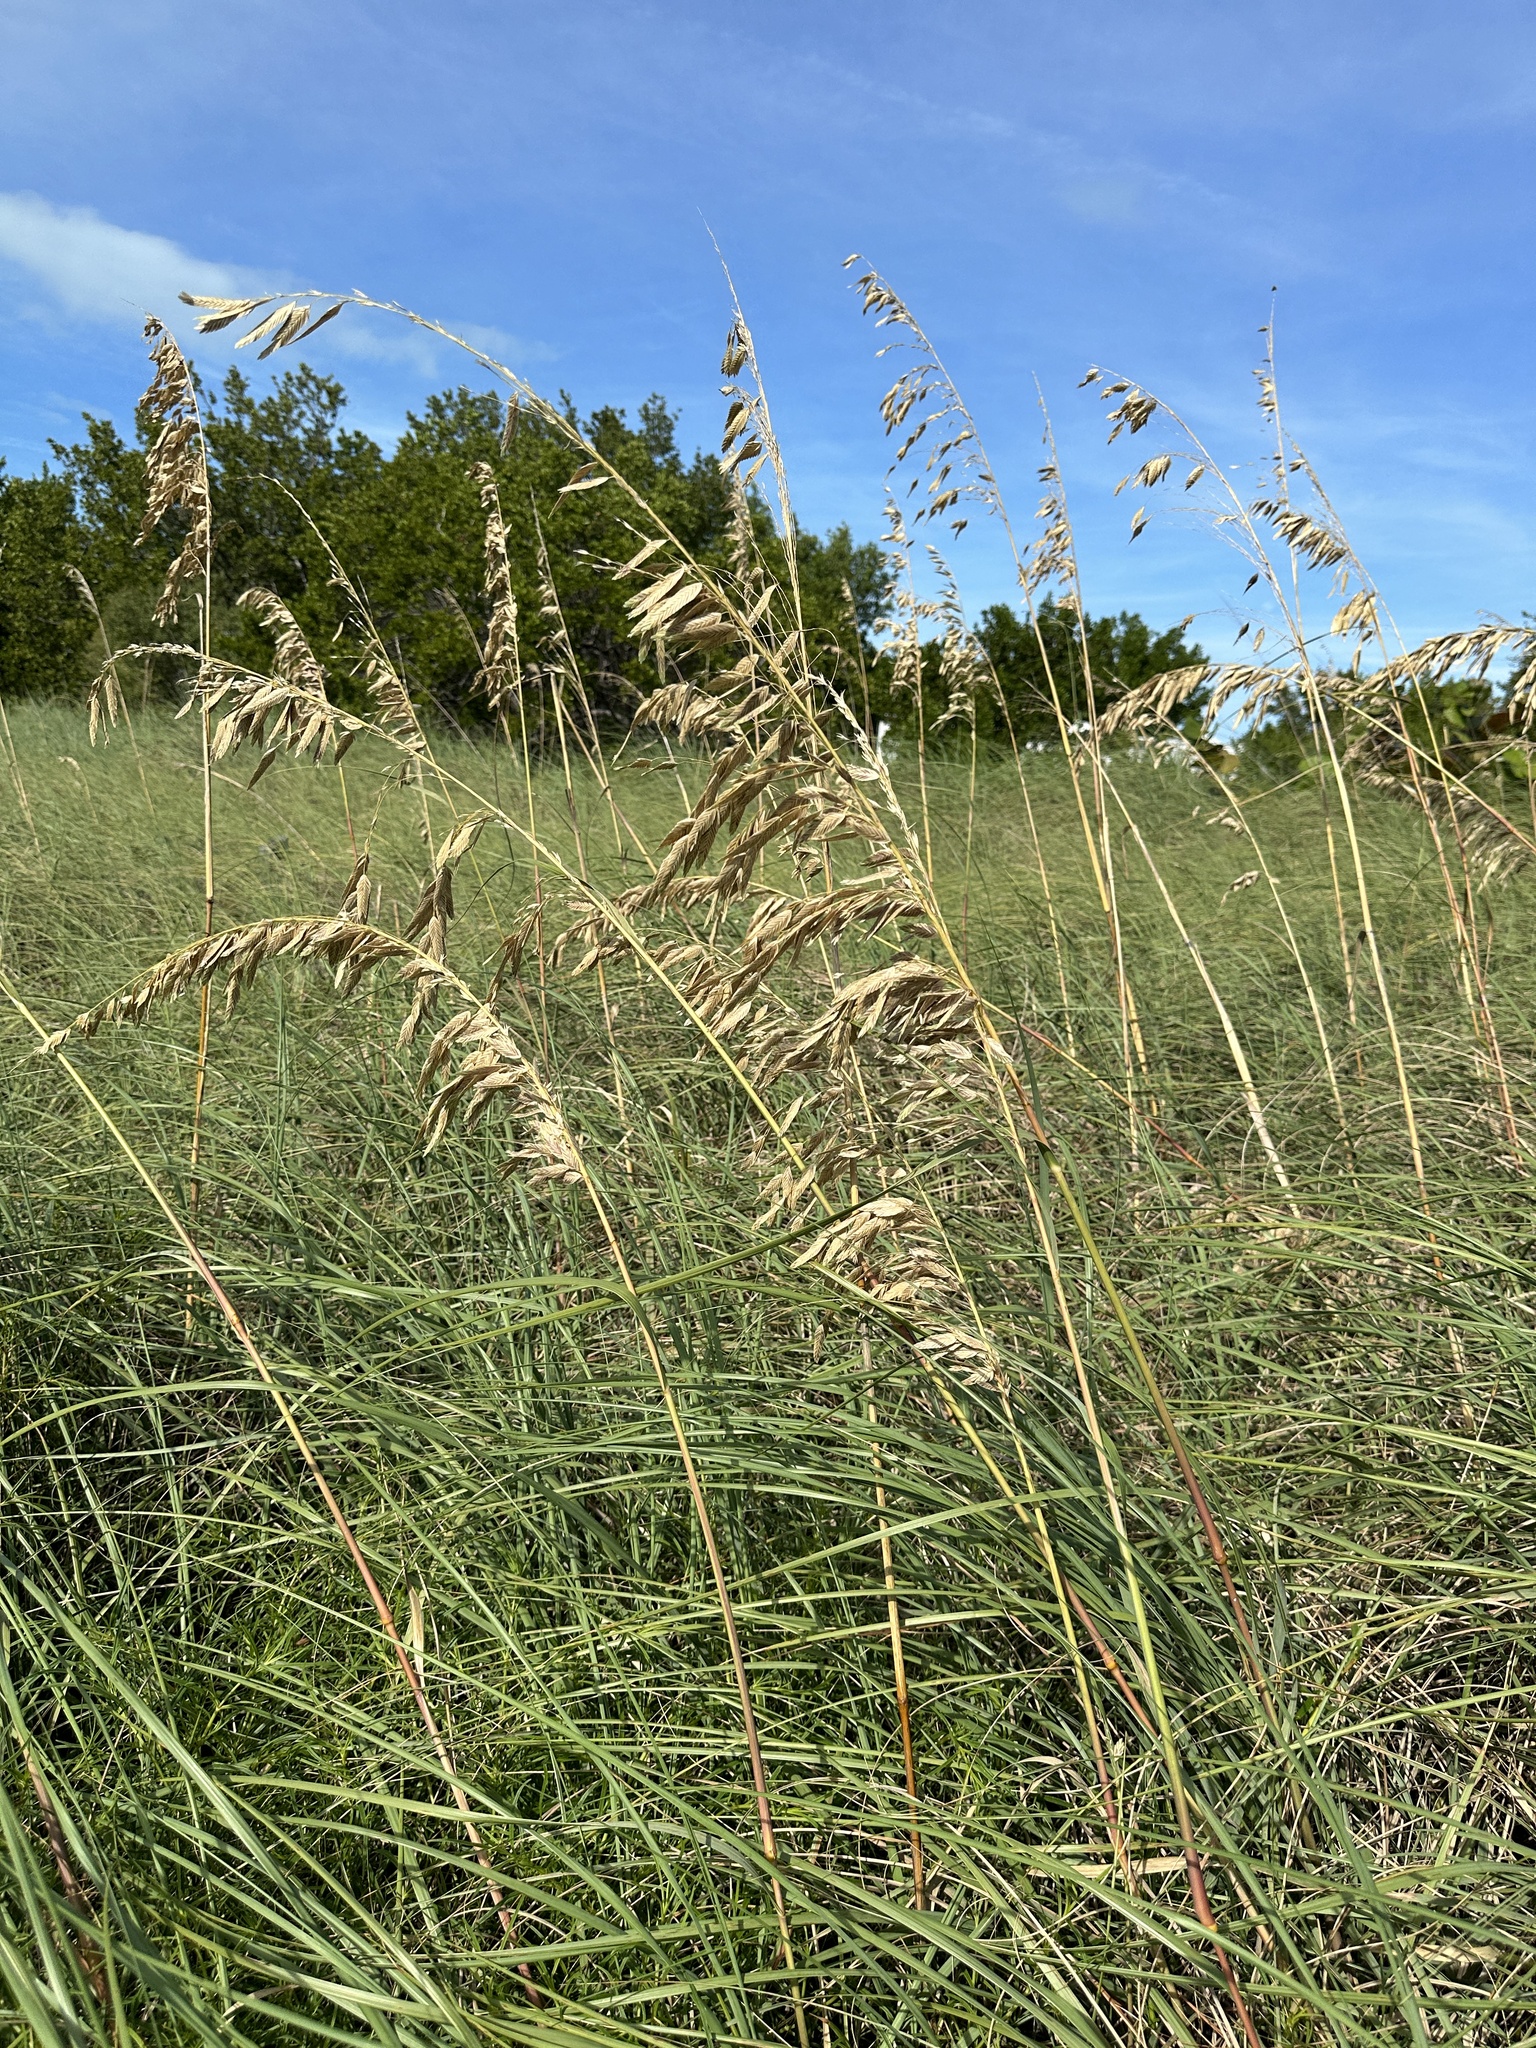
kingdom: Plantae
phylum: Tracheophyta
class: Liliopsida
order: Poales
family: Poaceae
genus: Uniola
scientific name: Uniola paniculata
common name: Seaside-oats
